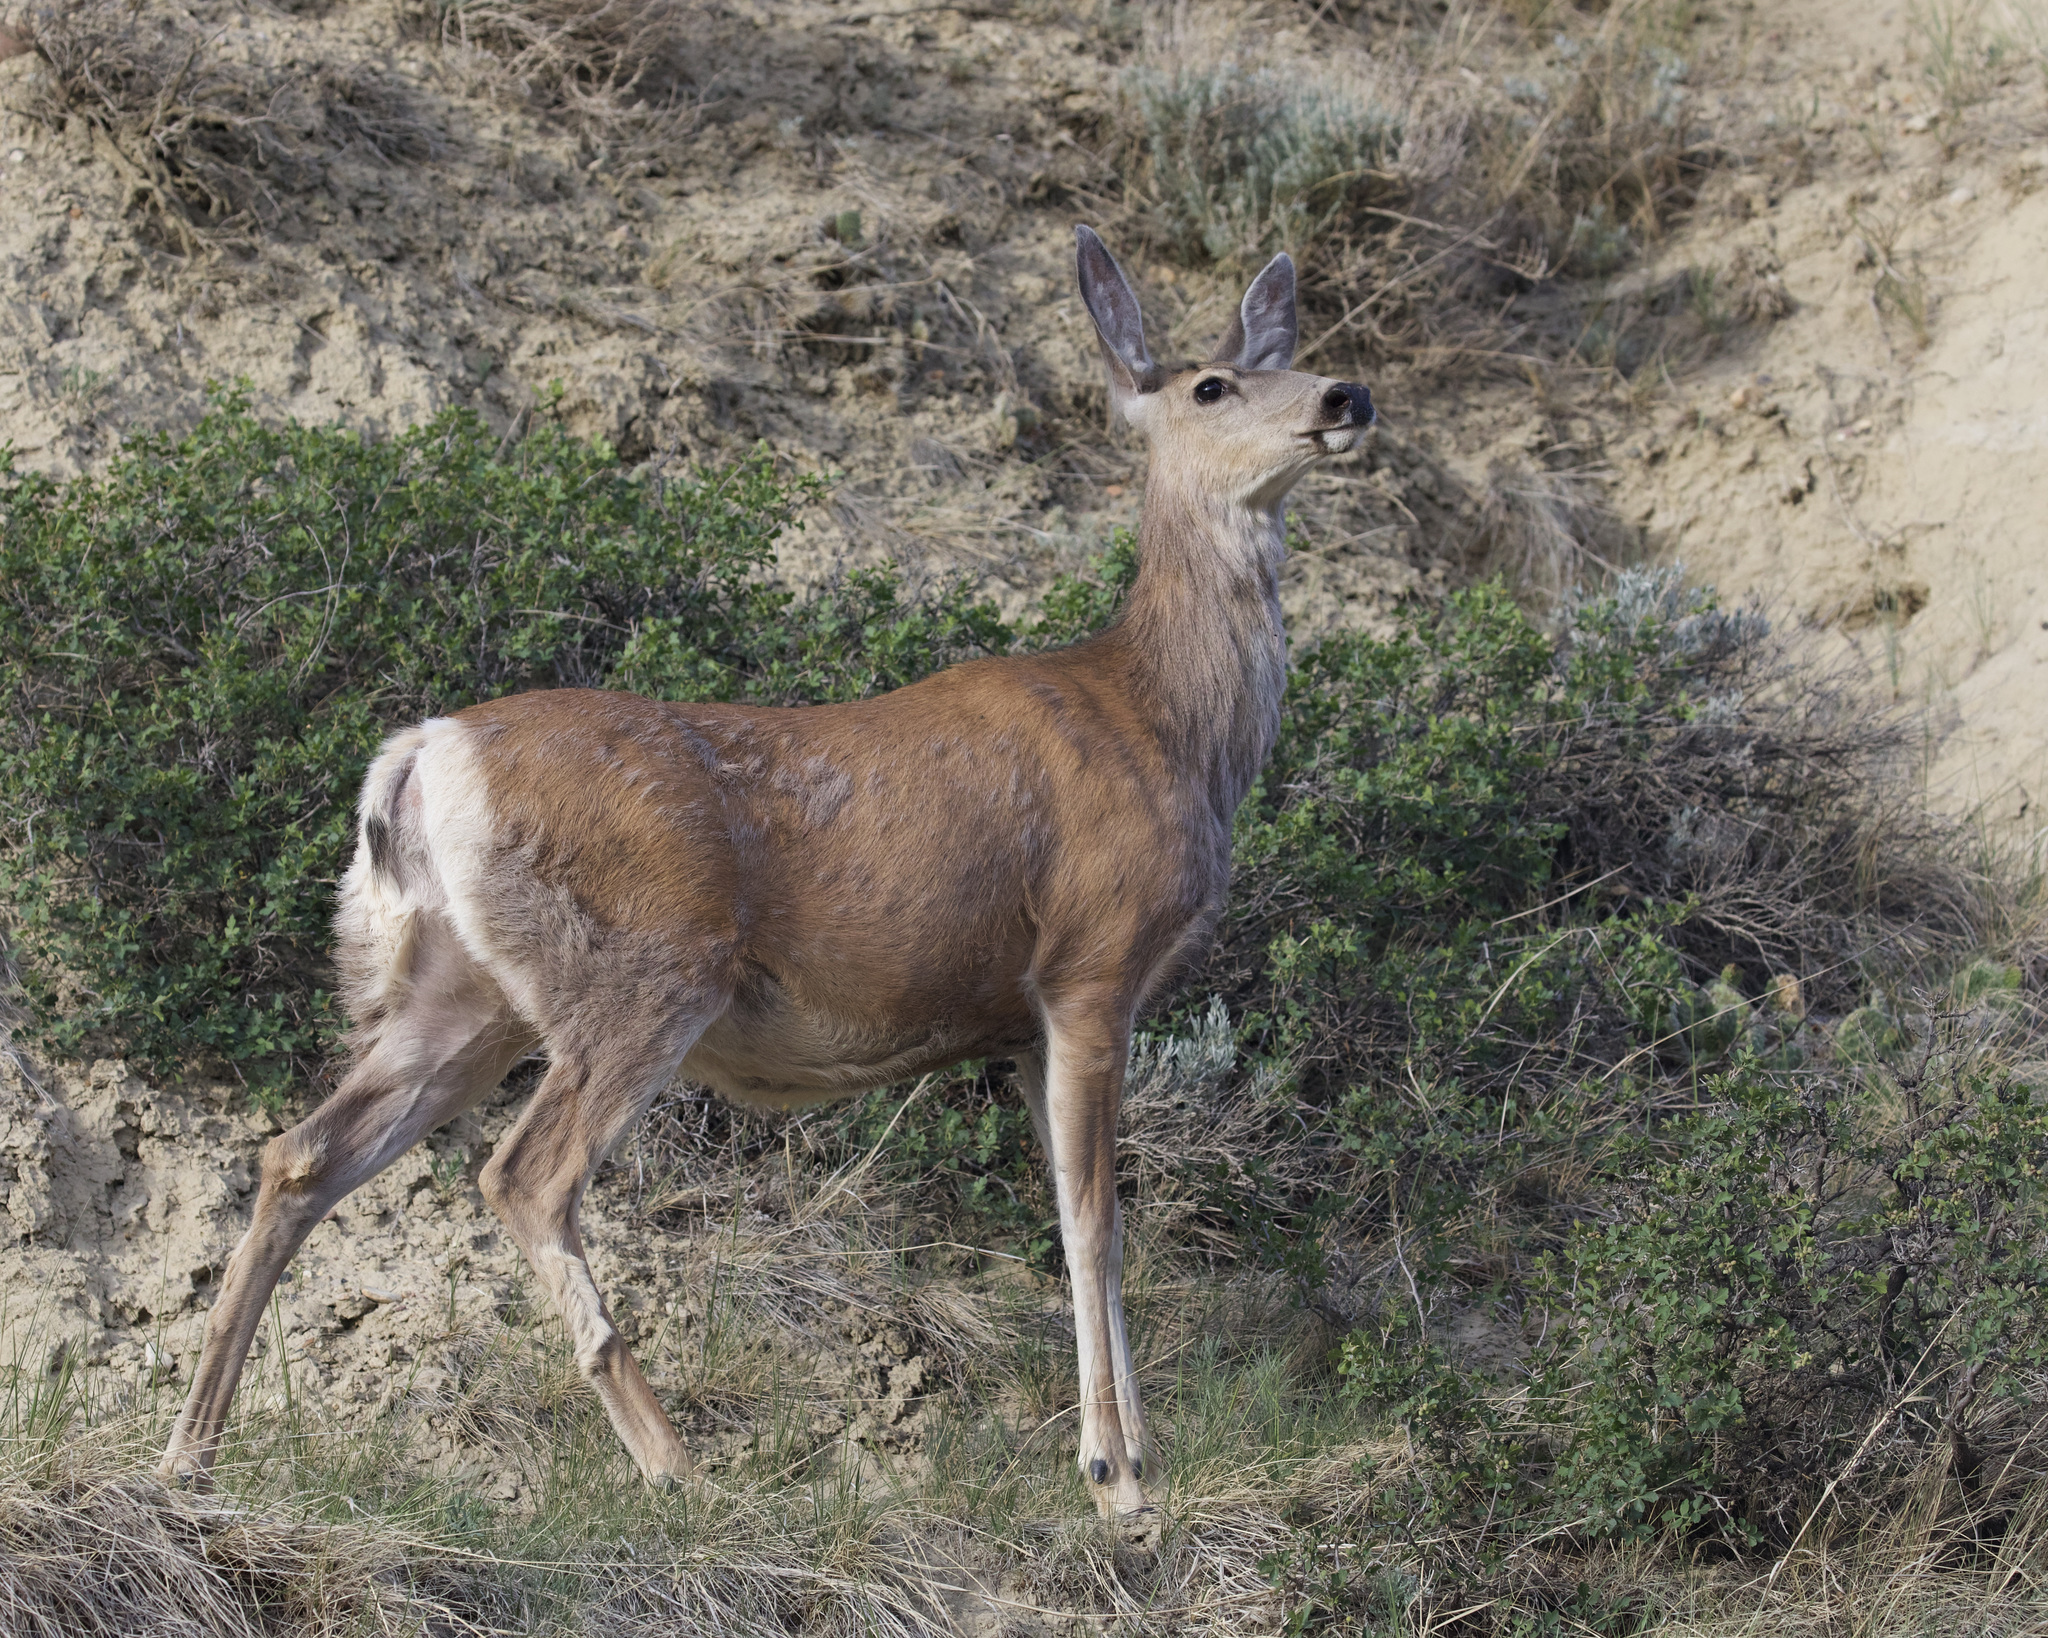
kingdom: Animalia
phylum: Chordata
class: Mammalia
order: Artiodactyla
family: Cervidae
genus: Odocoileus
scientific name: Odocoileus hemionus
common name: Mule deer
